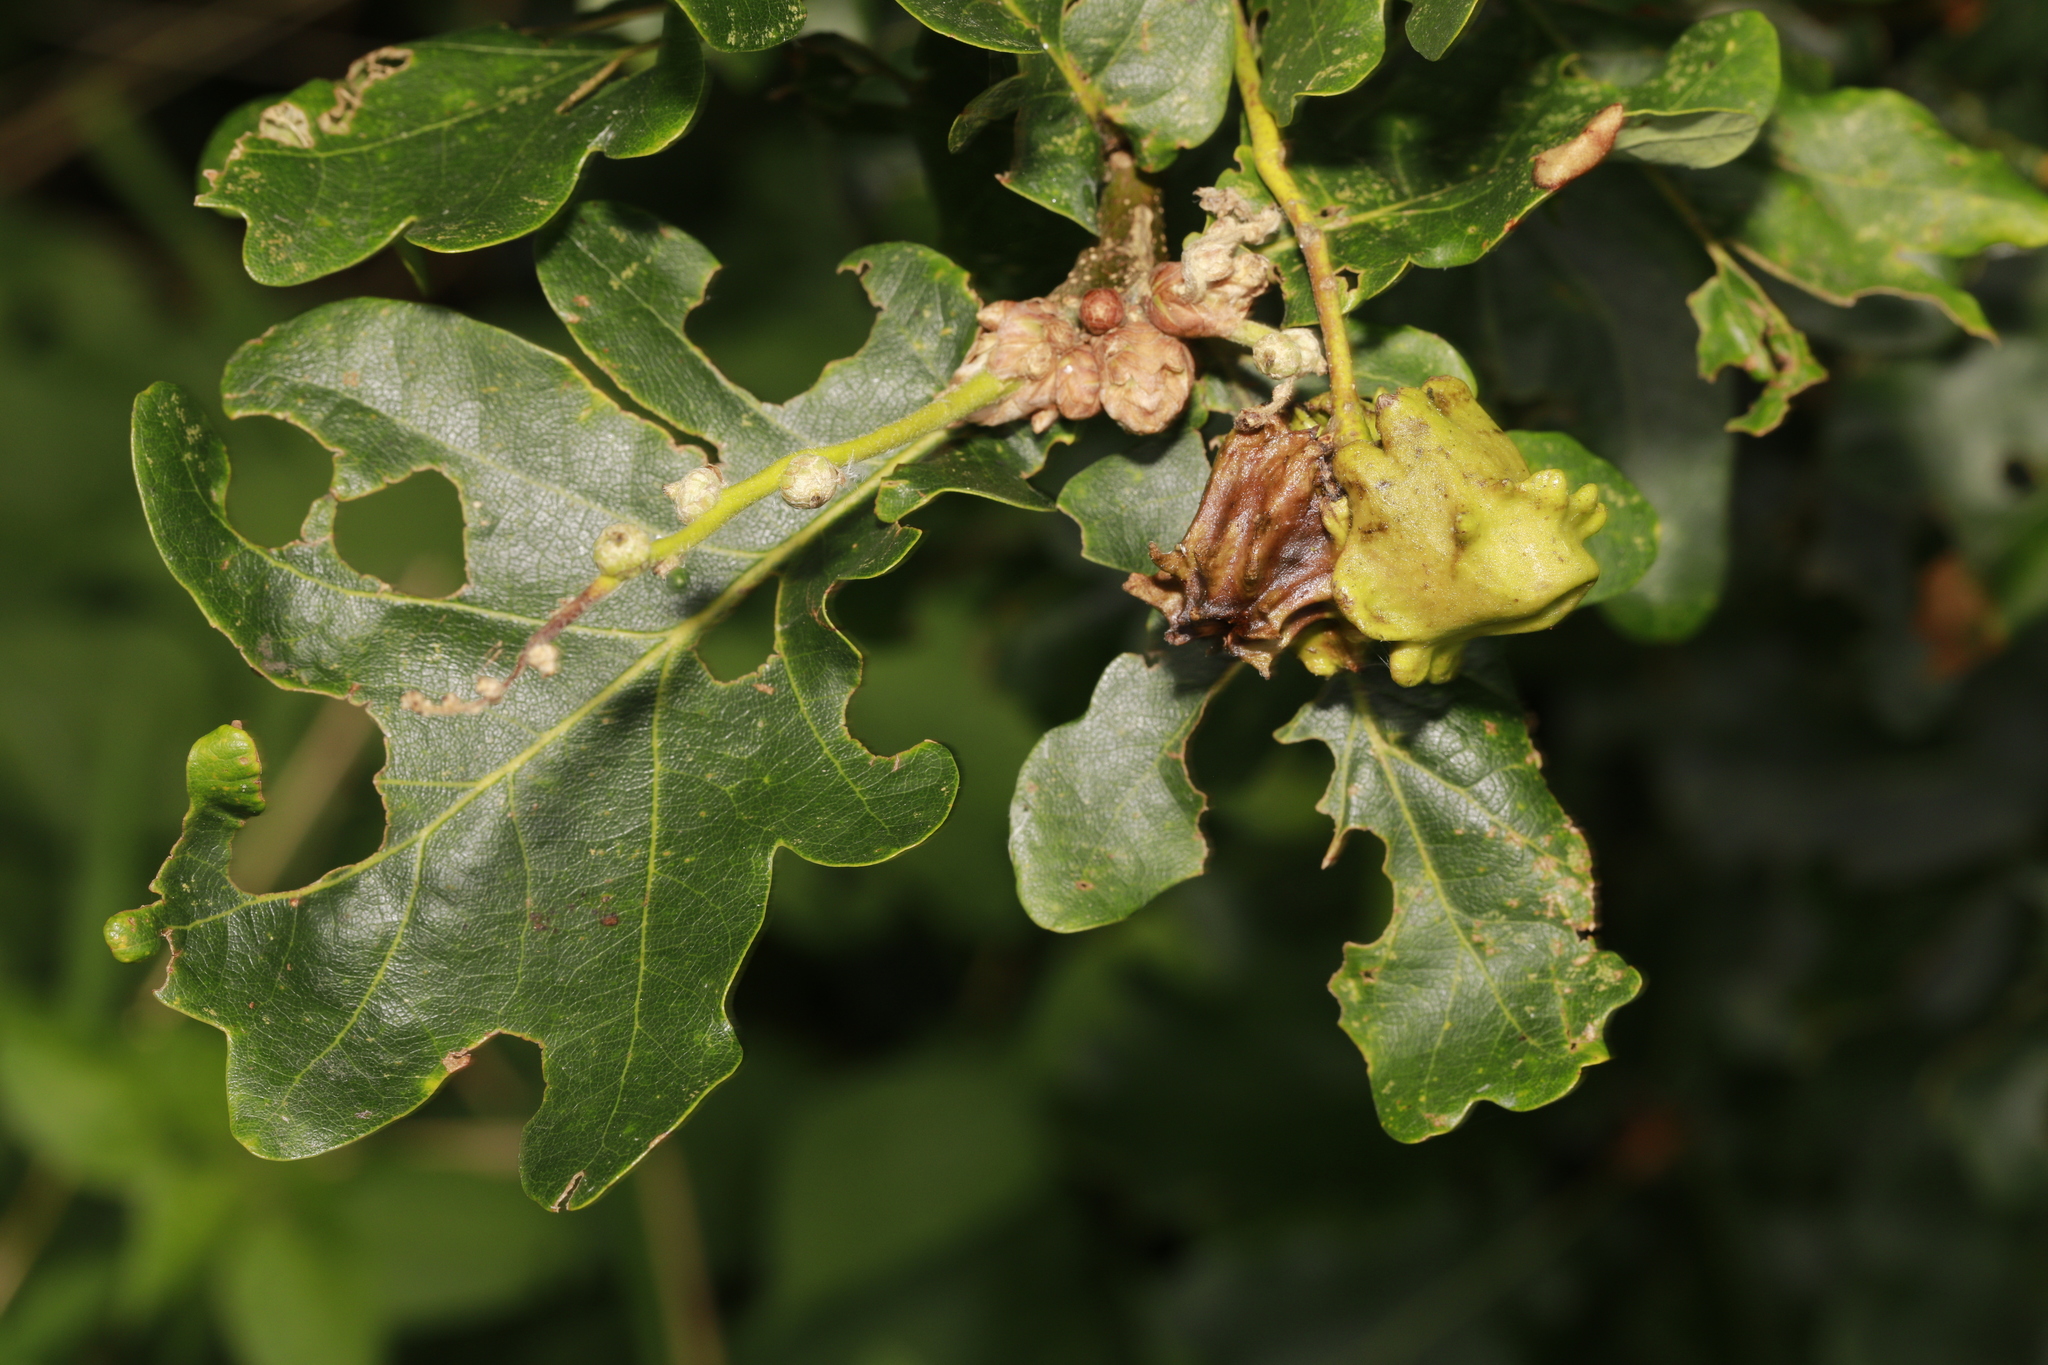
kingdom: Animalia
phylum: Arthropoda
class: Insecta
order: Hymenoptera
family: Cynipidae
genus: Andricus
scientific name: Andricus quercuscalicis
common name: Knopper gall
